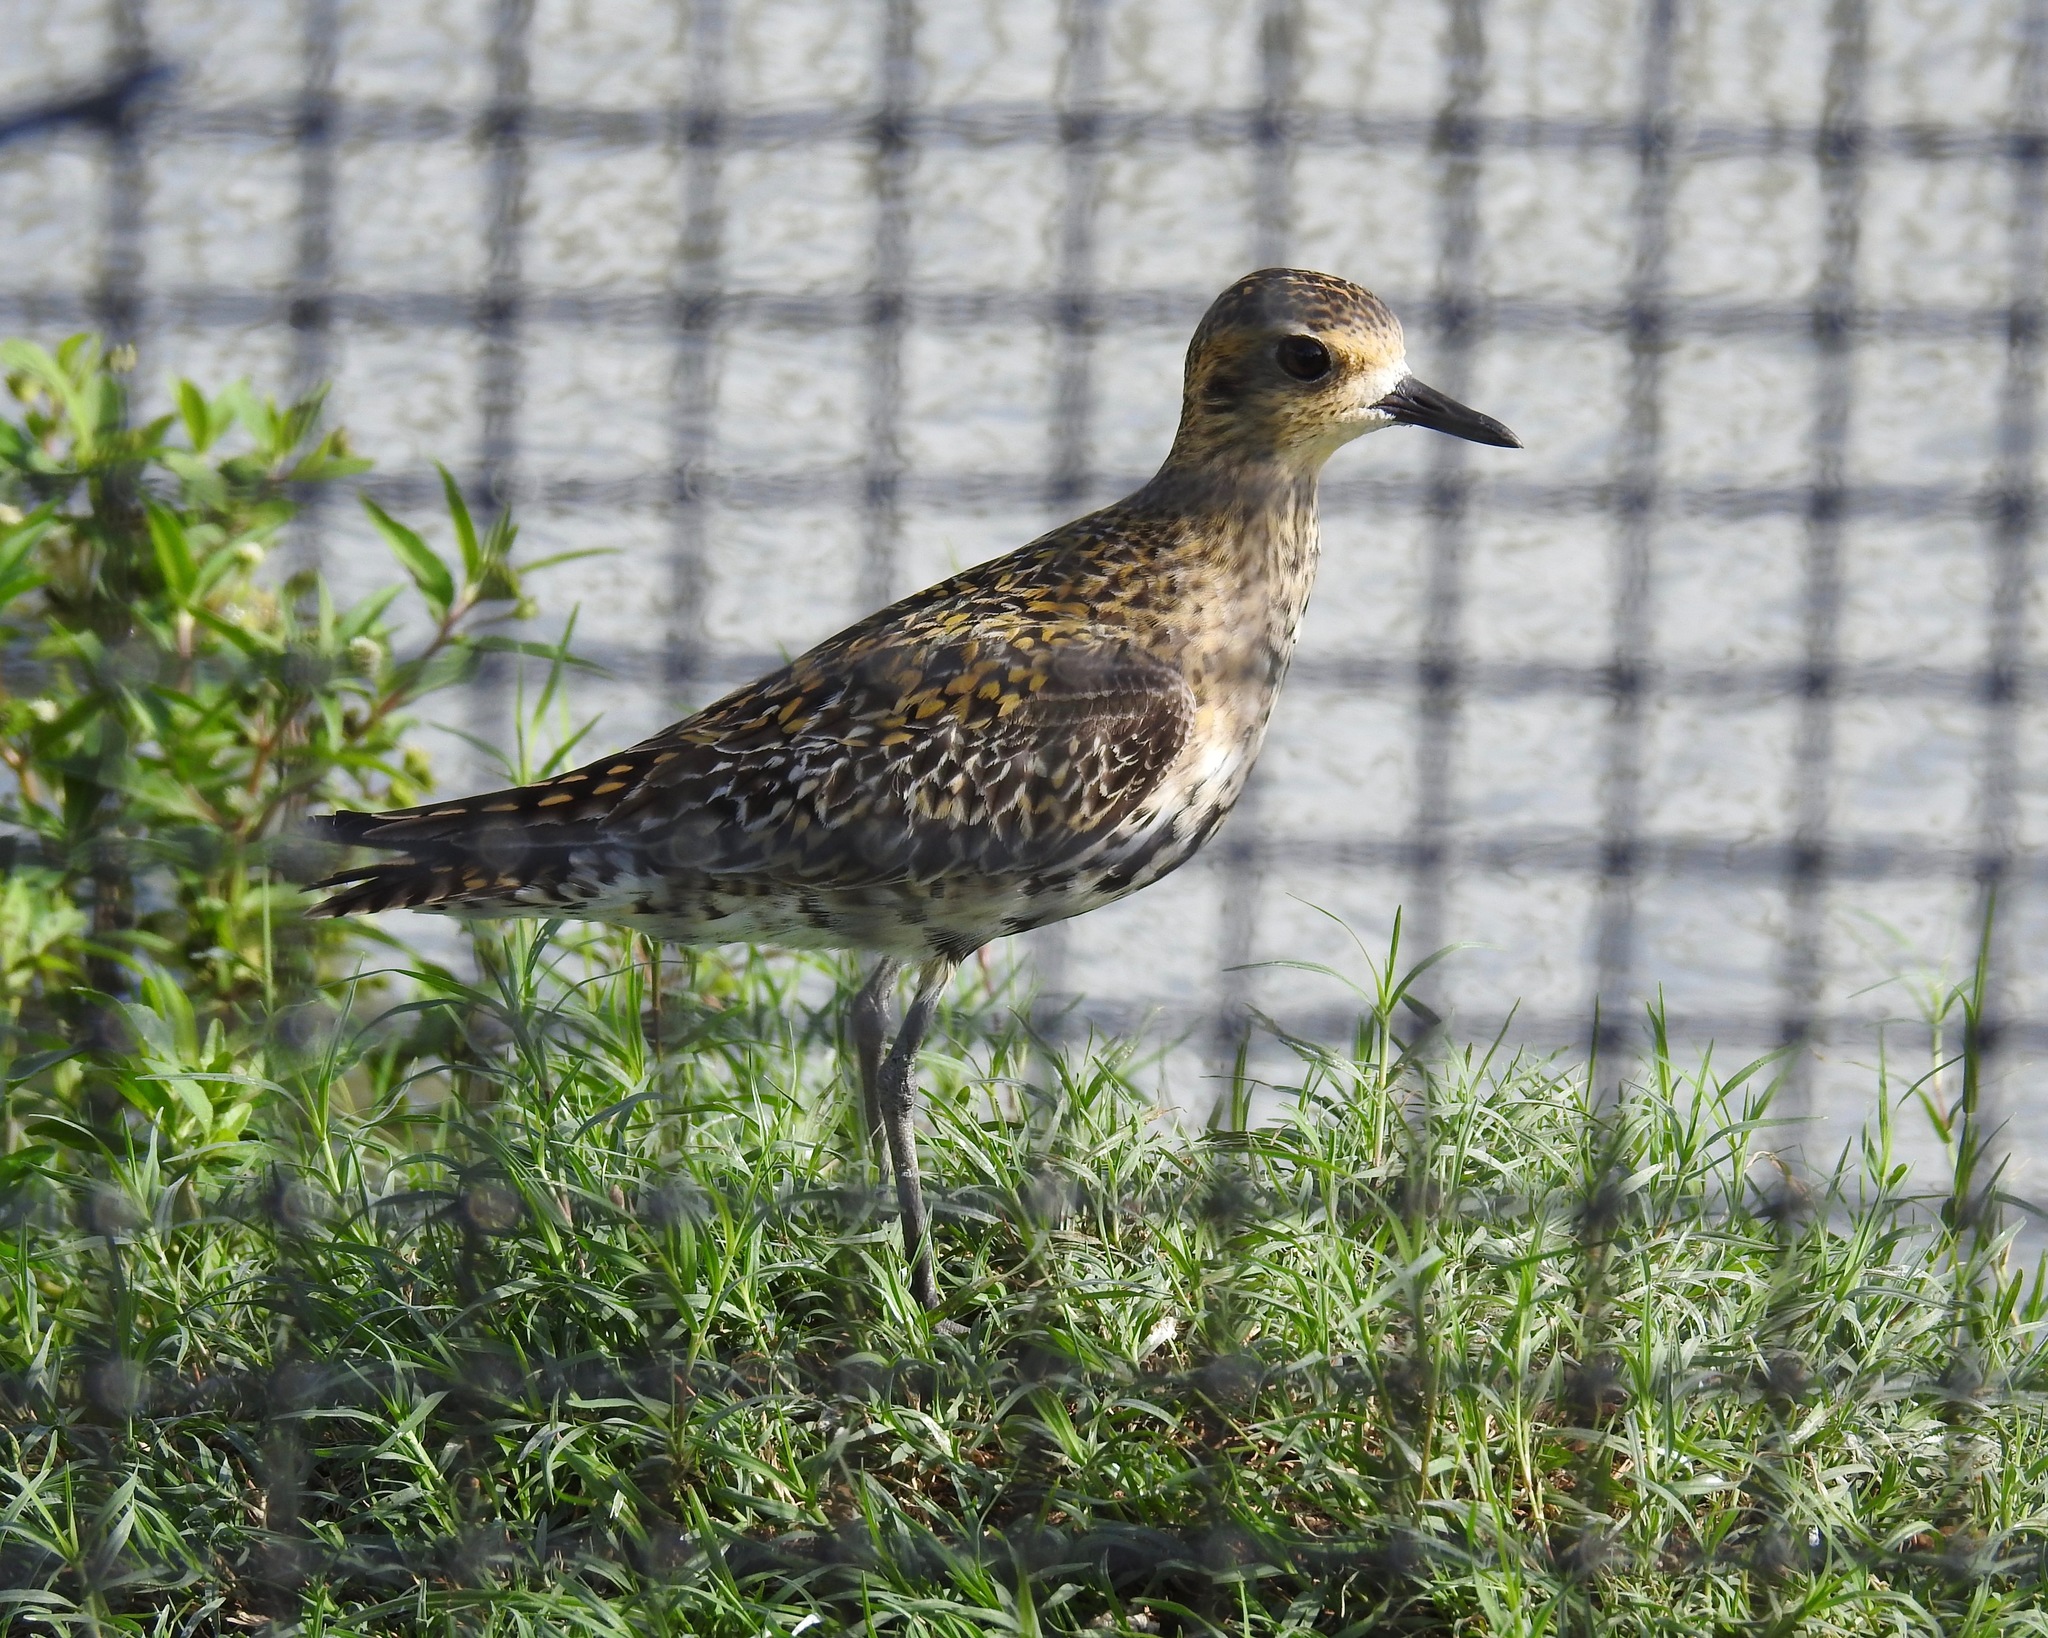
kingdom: Animalia
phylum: Chordata
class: Aves
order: Charadriiformes
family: Charadriidae
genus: Pluvialis
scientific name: Pluvialis fulva
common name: Pacific golden plover
